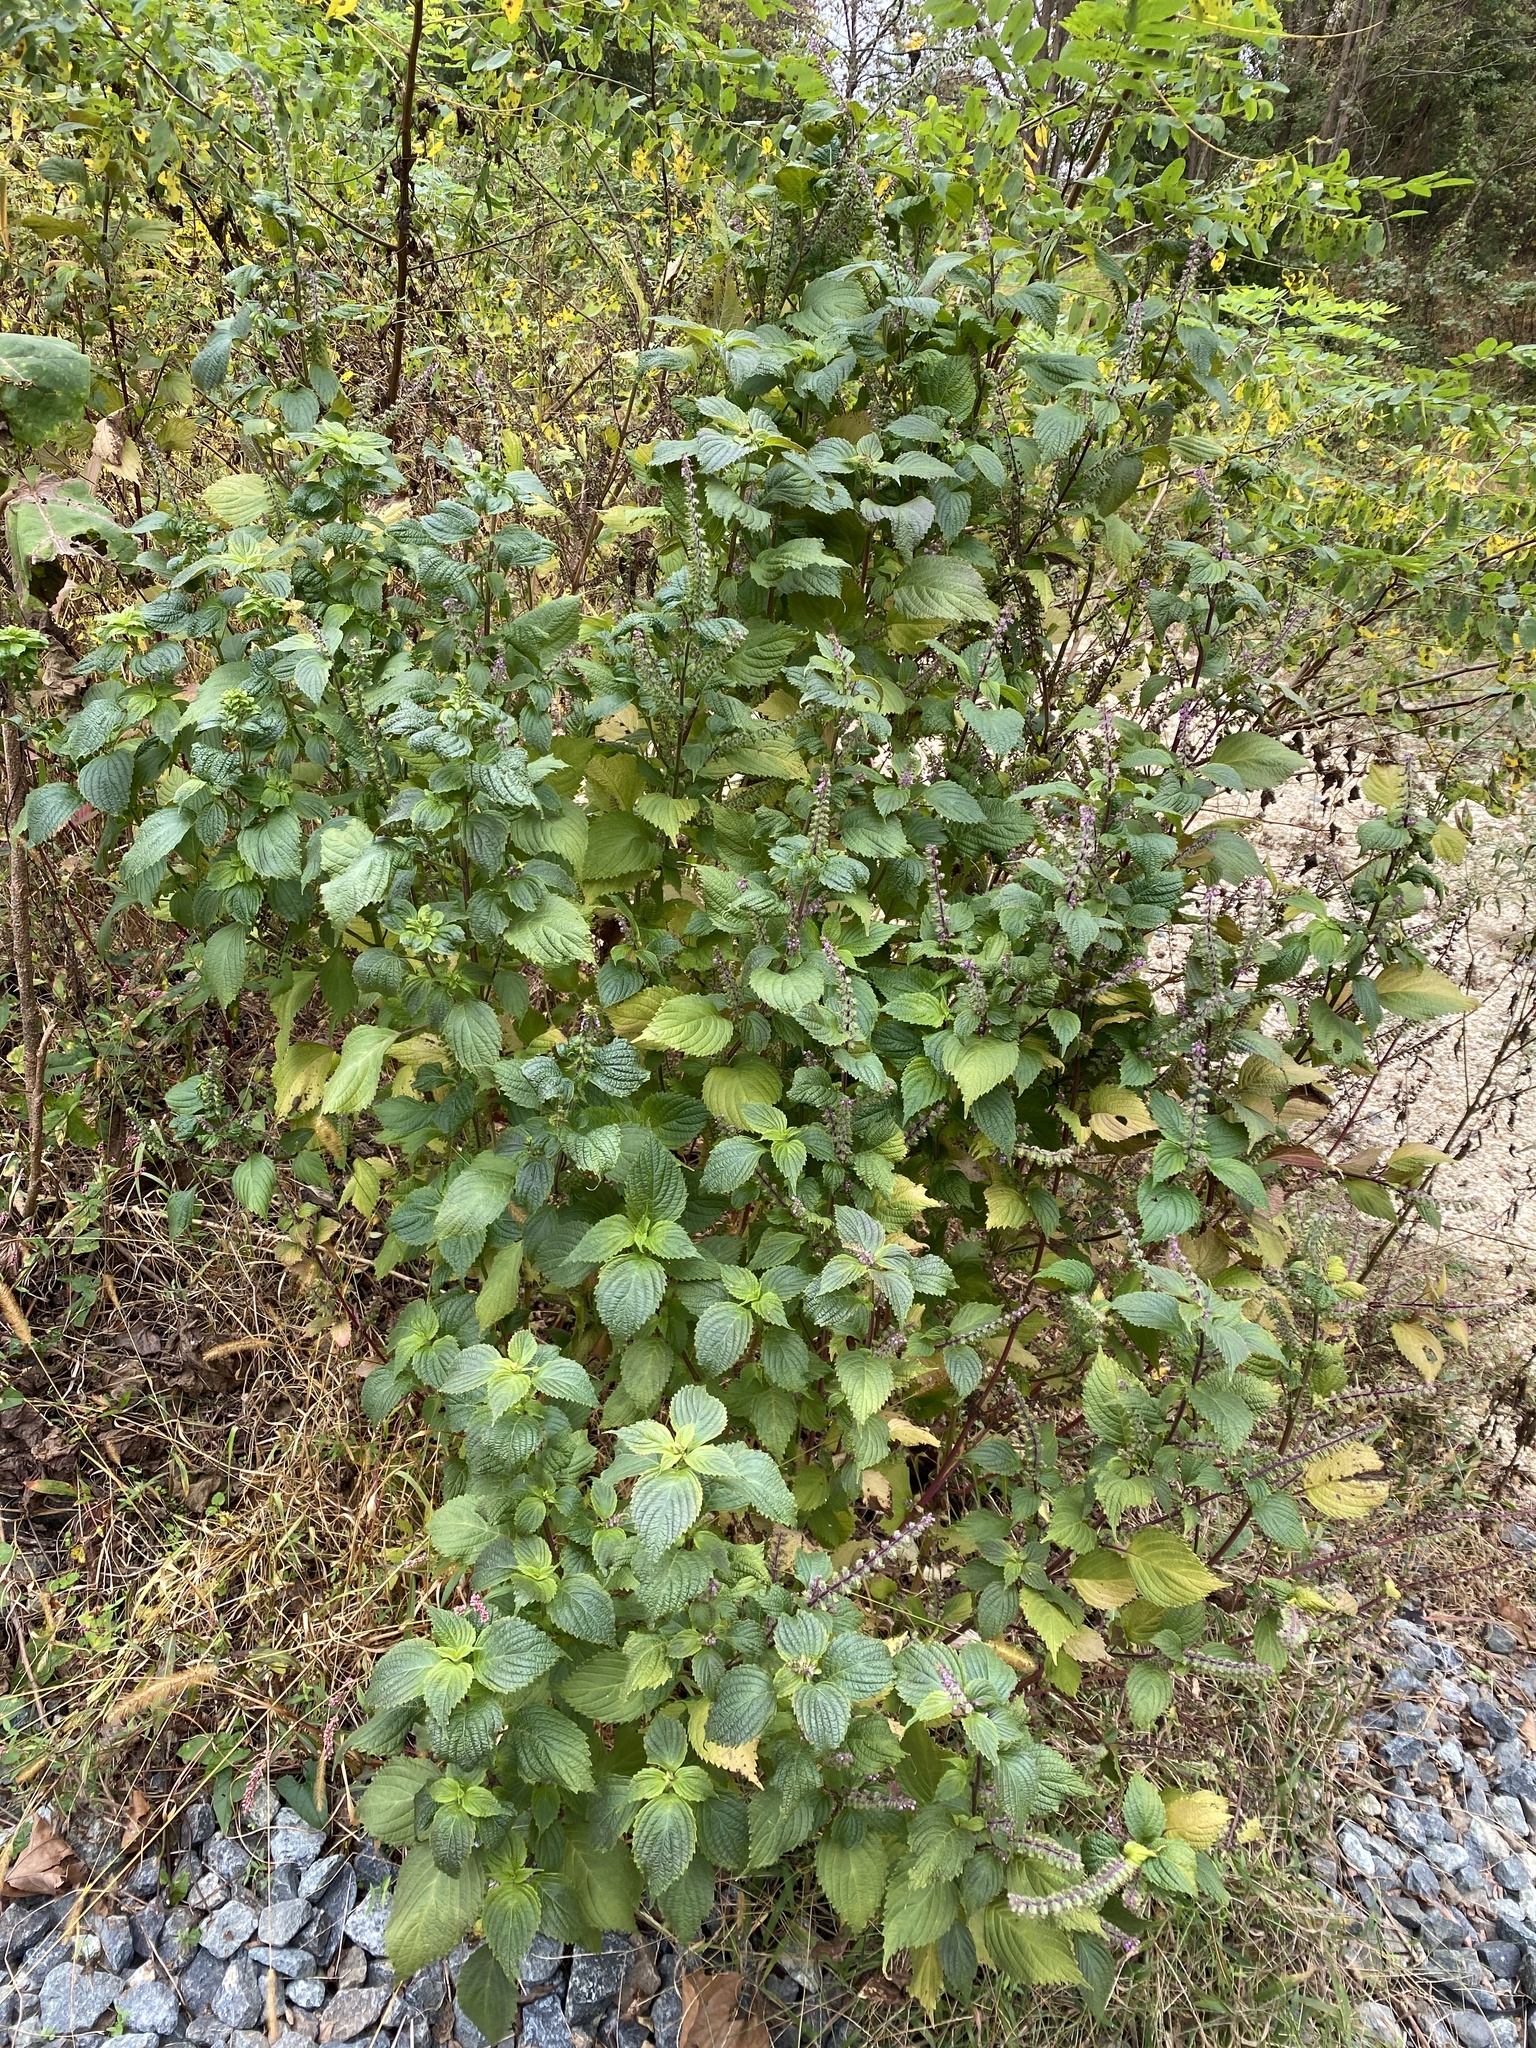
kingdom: Plantae
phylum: Tracheophyta
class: Magnoliopsida
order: Lamiales
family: Lamiaceae
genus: Perilla
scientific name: Perilla frutescens
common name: Perilla
